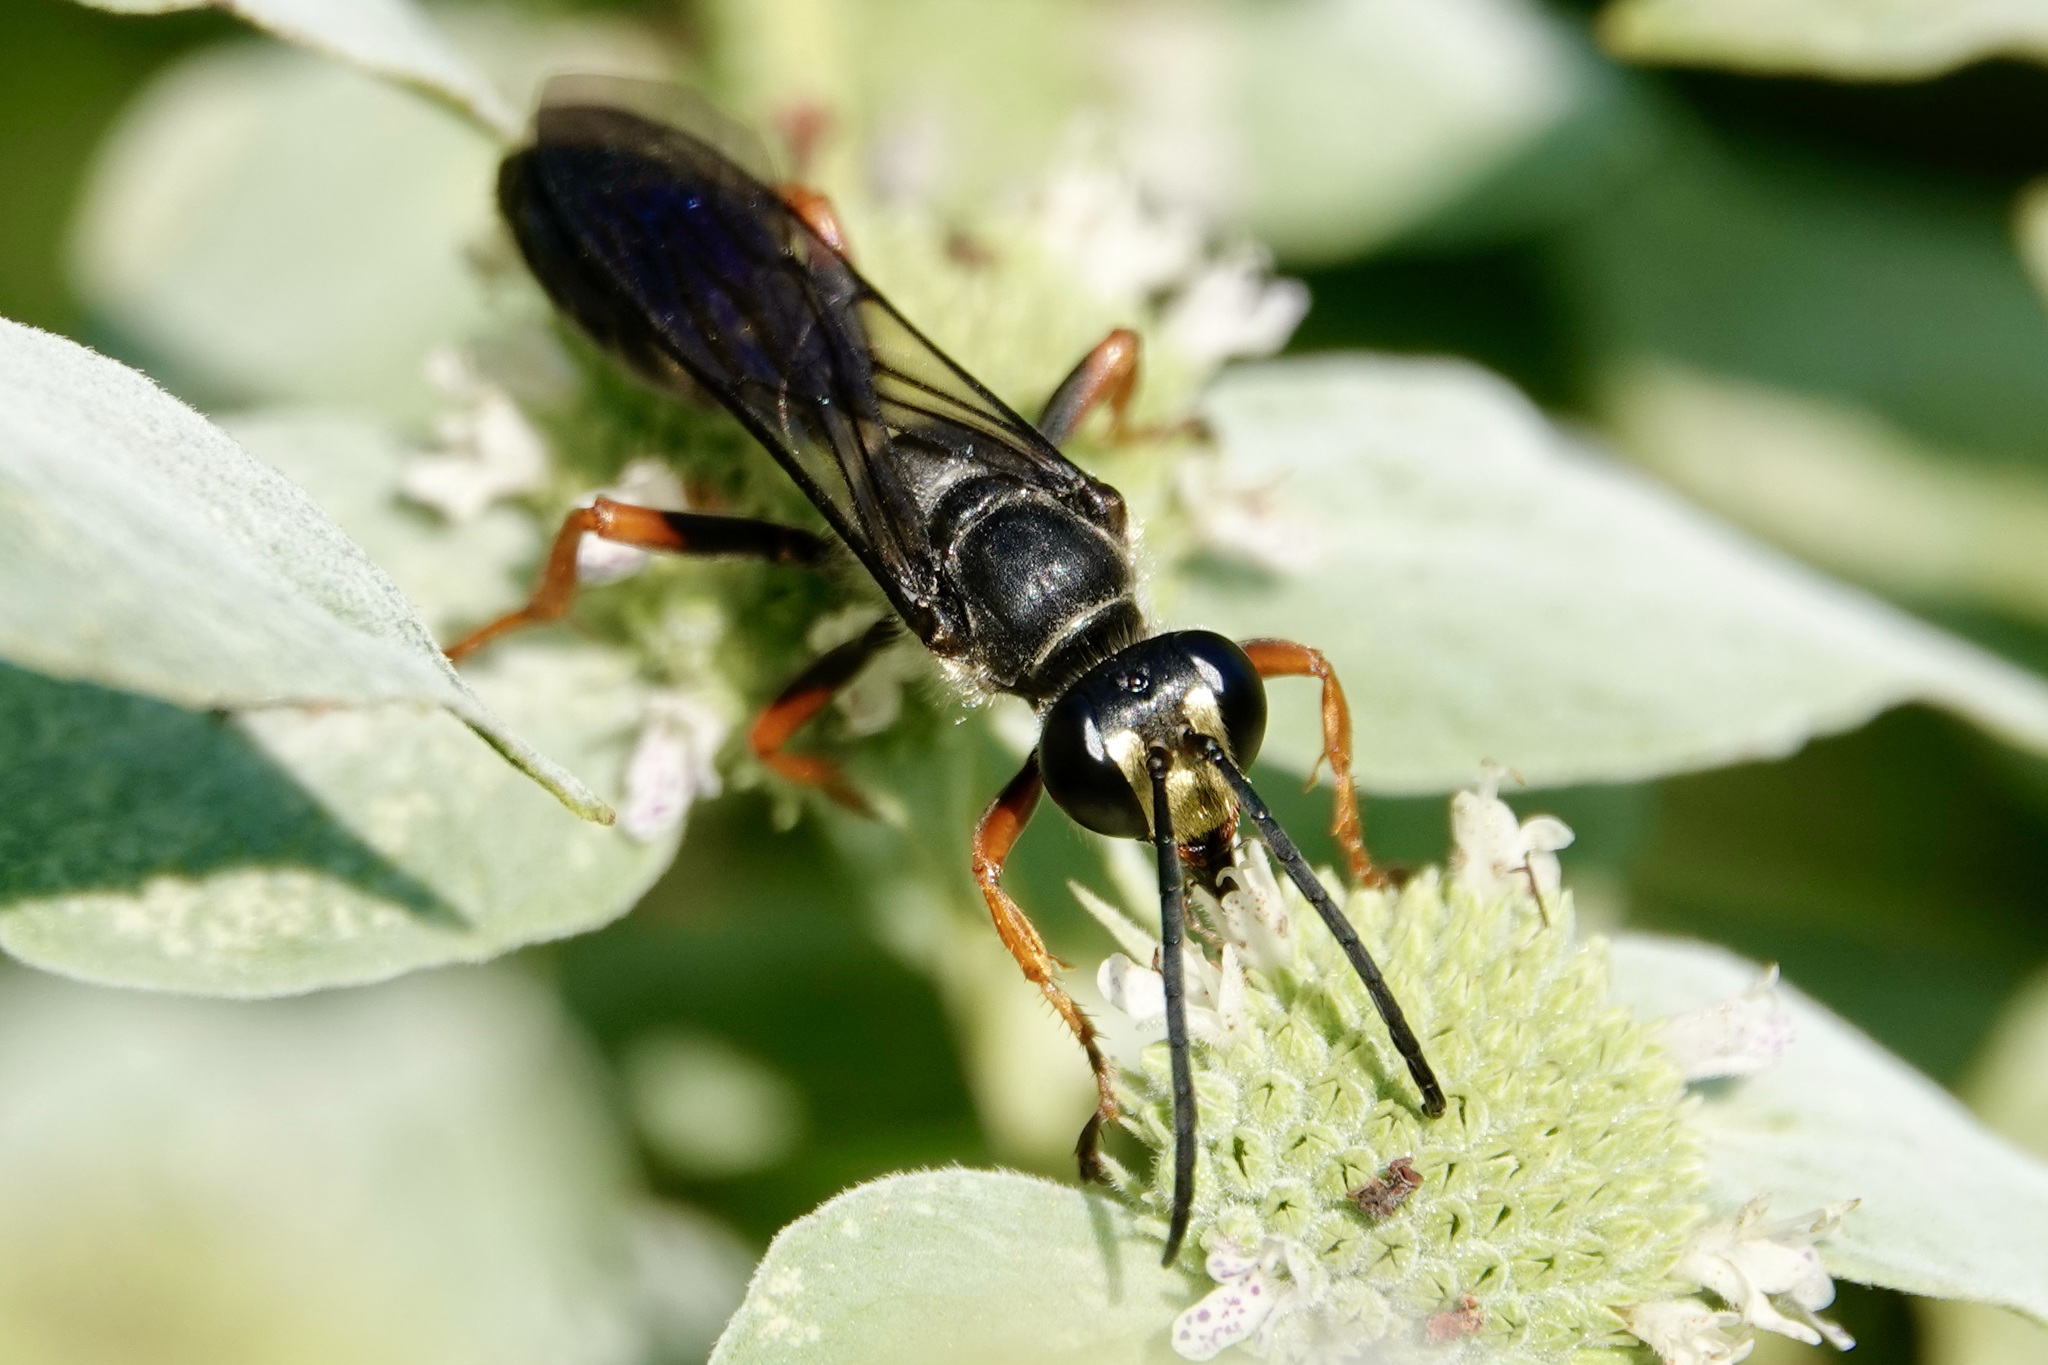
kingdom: Animalia
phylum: Arthropoda
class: Insecta
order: Hymenoptera
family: Sphecidae
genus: Sphex
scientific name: Sphex nudus
